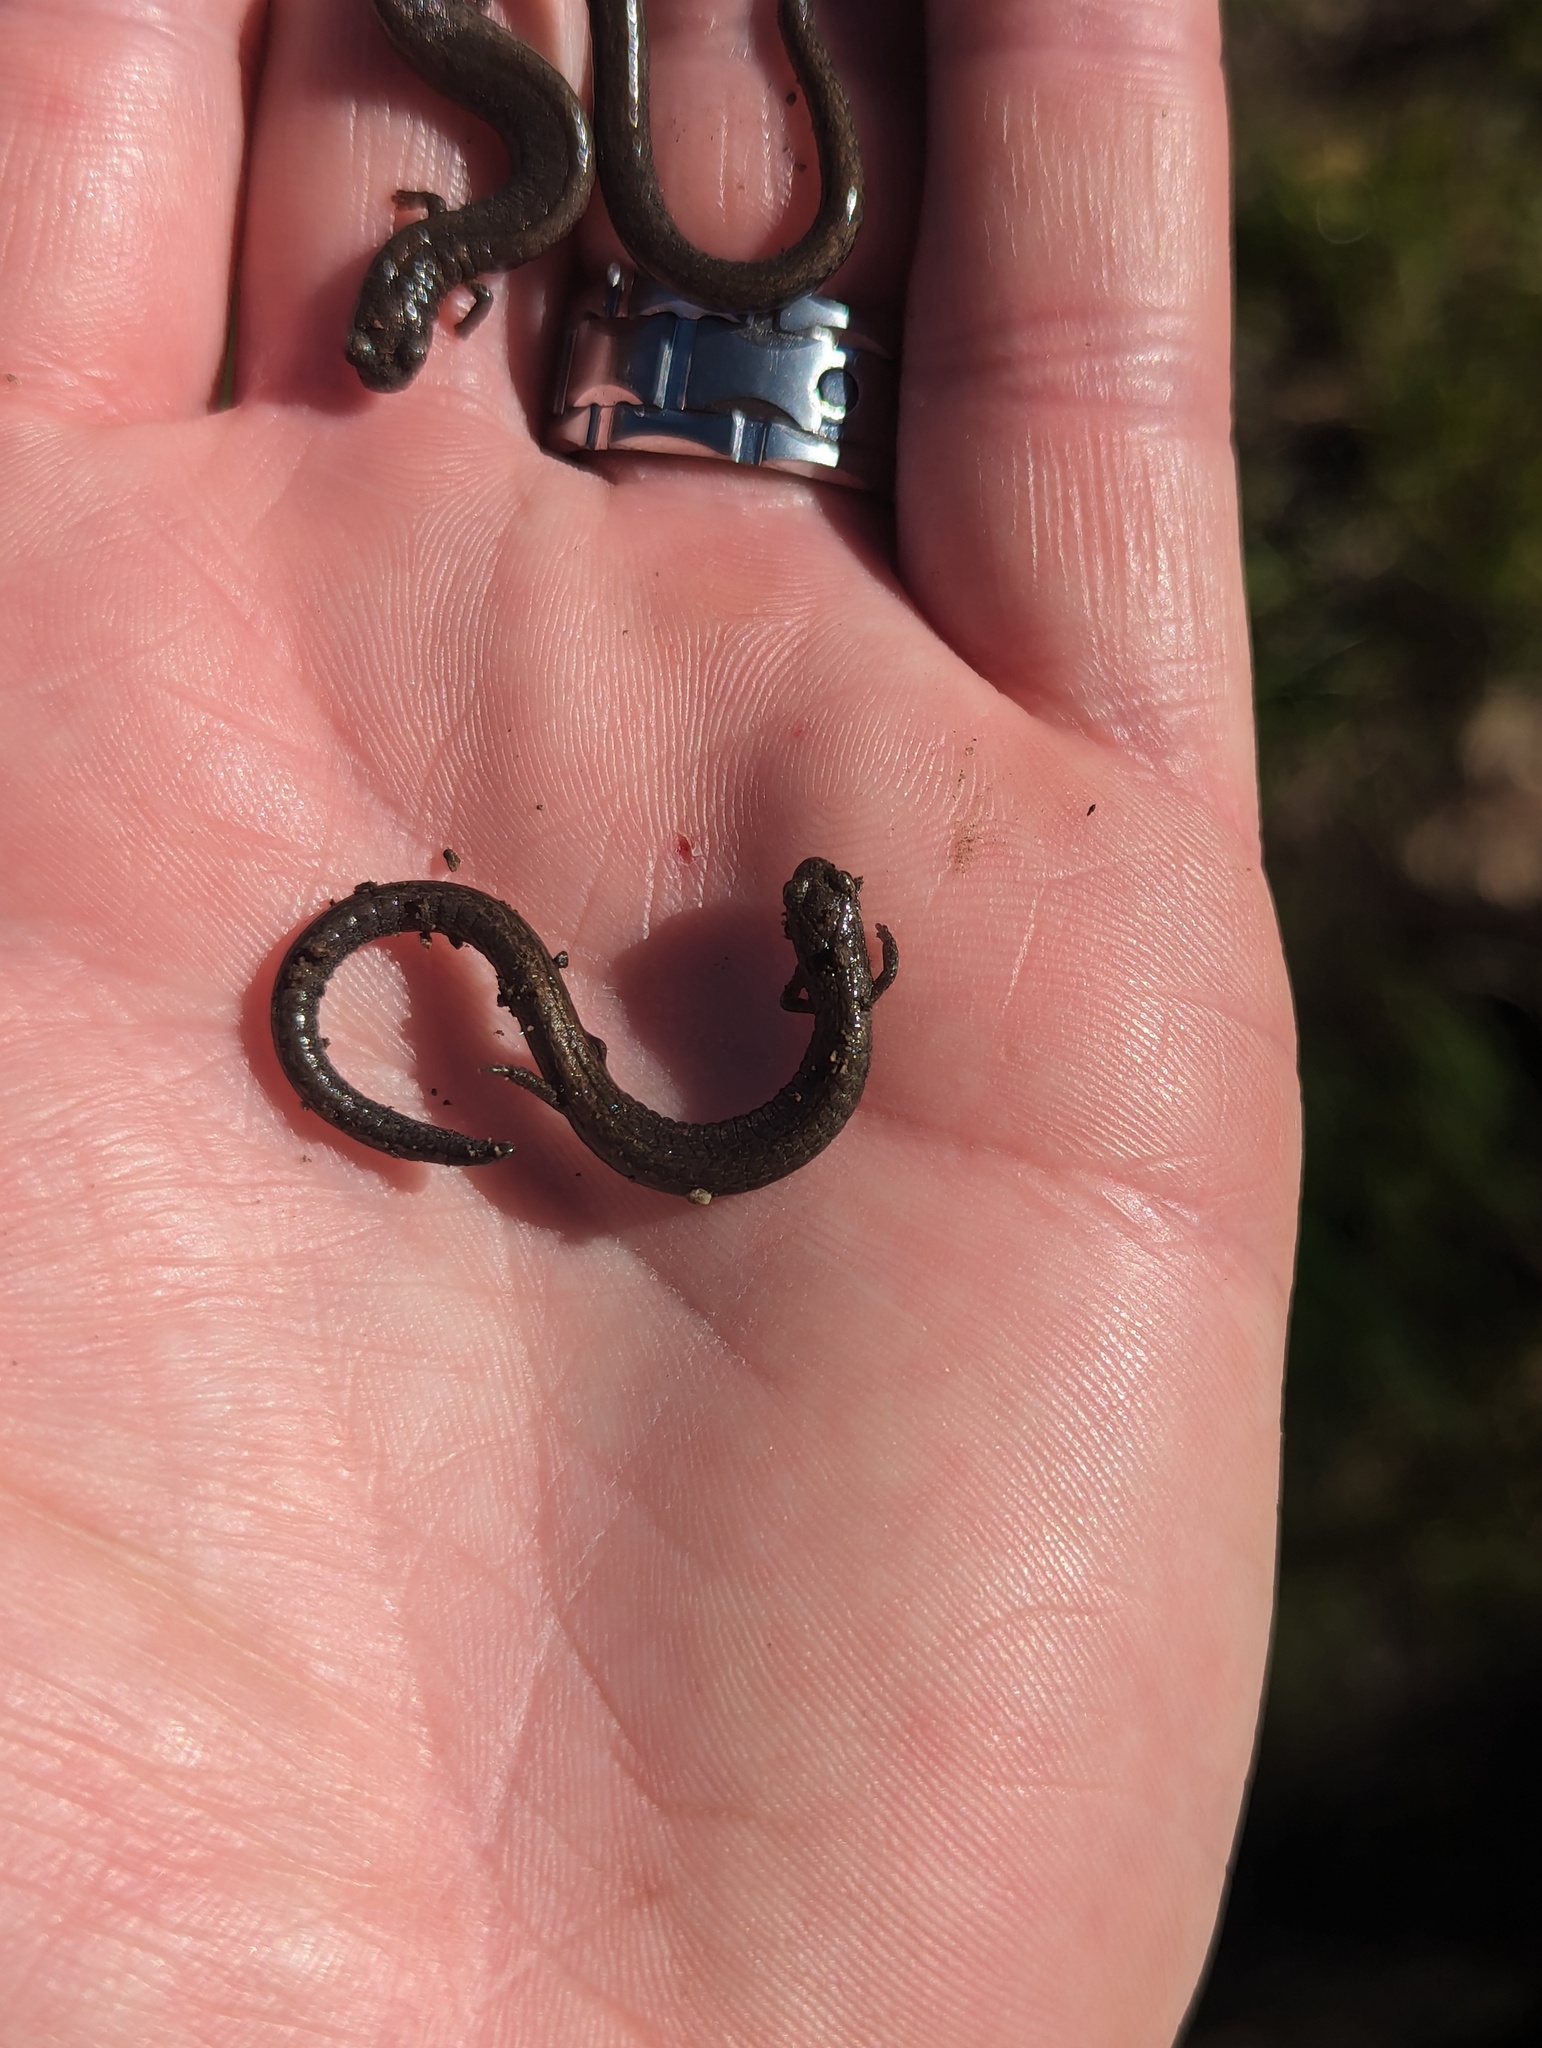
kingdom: Animalia
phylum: Chordata
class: Amphibia
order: Caudata
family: Plethodontidae
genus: Batrachoseps
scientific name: Batrachoseps nigriventris
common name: Black-bellied slender salamander
